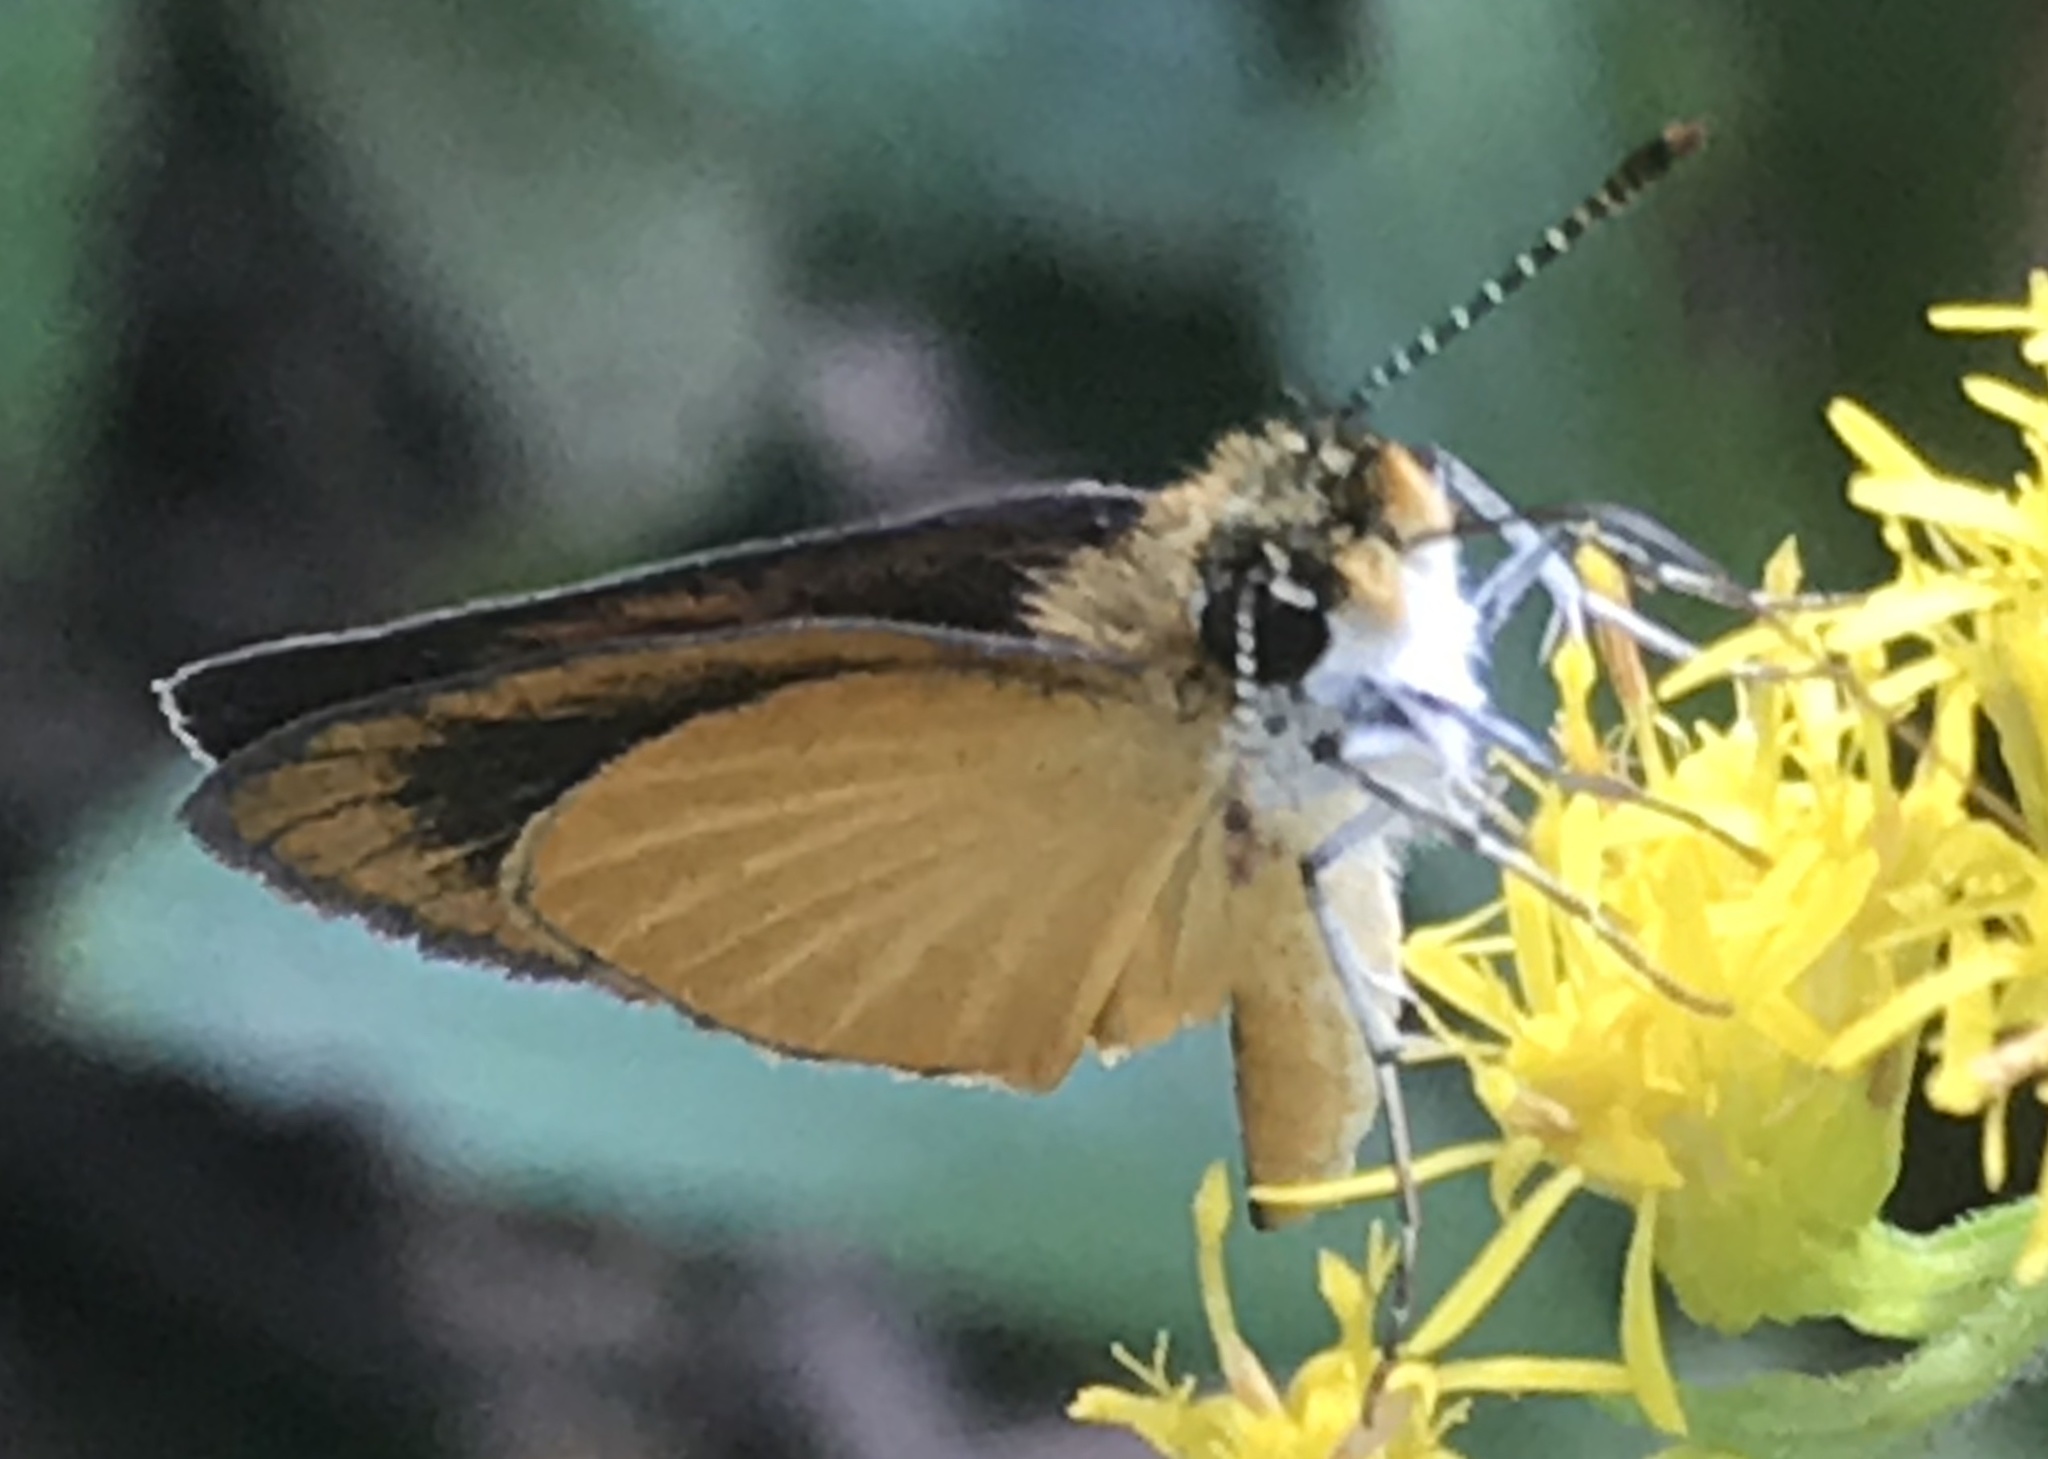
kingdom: Animalia
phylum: Arthropoda
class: Insecta
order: Lepidoptera
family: Hesperiidae
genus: Ancyloxypha
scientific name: Ancyloxypha numitor
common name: Least skipper
